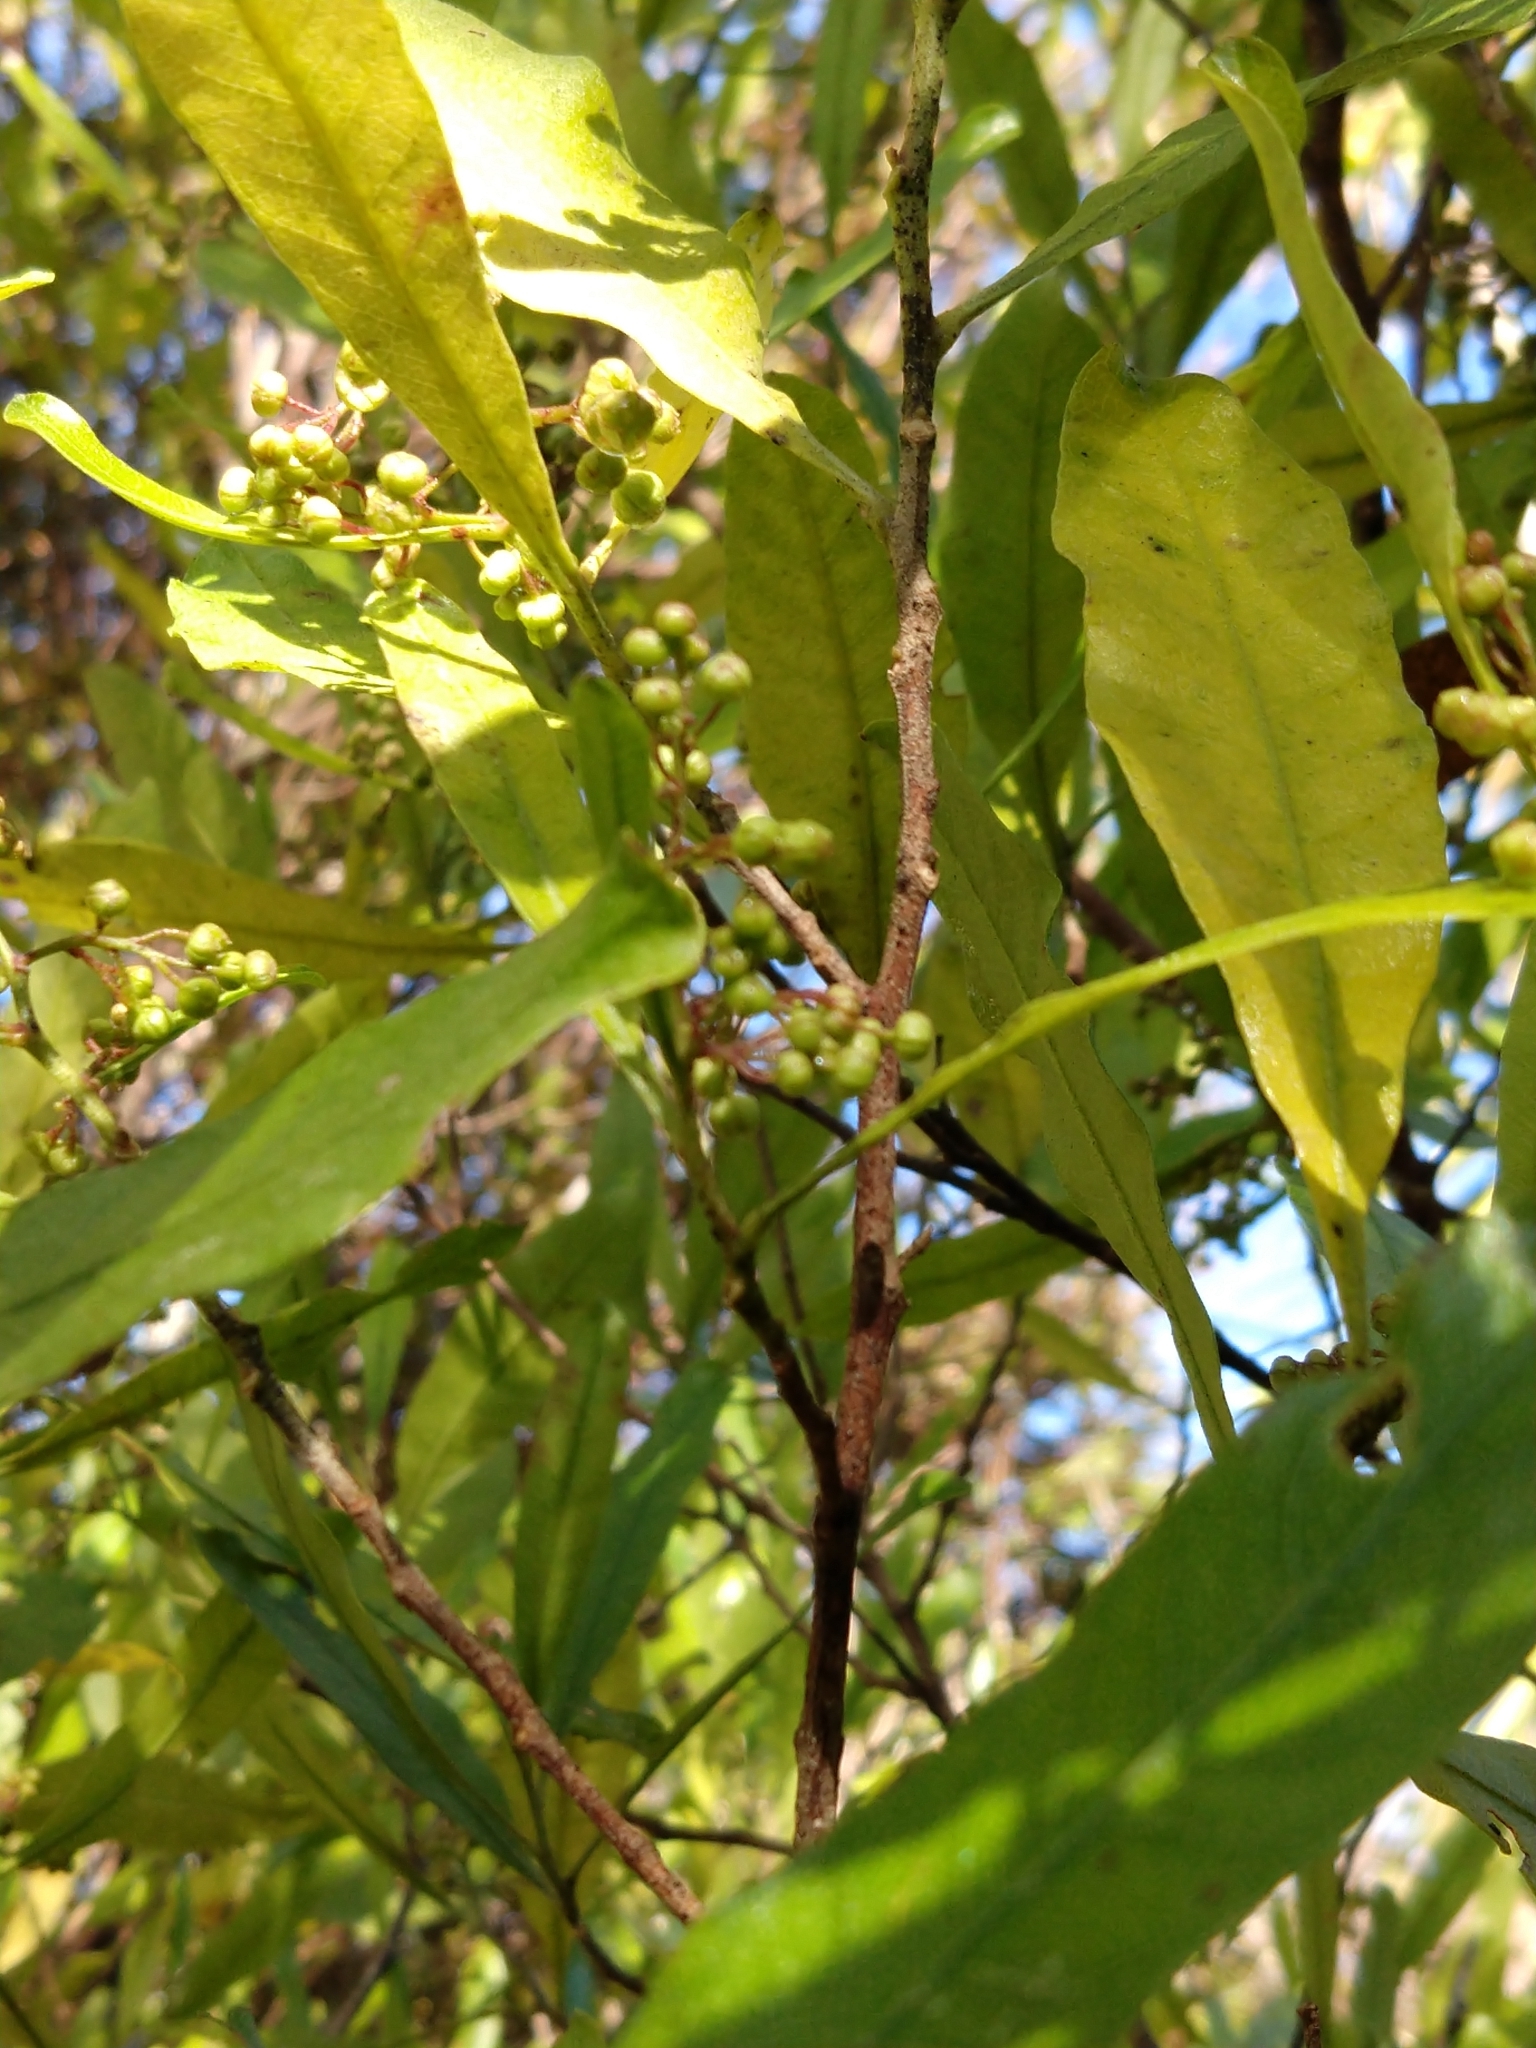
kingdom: Plantae
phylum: Tracheophyta
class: Magnoliopsida
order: Sapindales
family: Sapindaceae
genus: Dodonaea
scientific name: Dodonaea viscosa
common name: Hopbush
